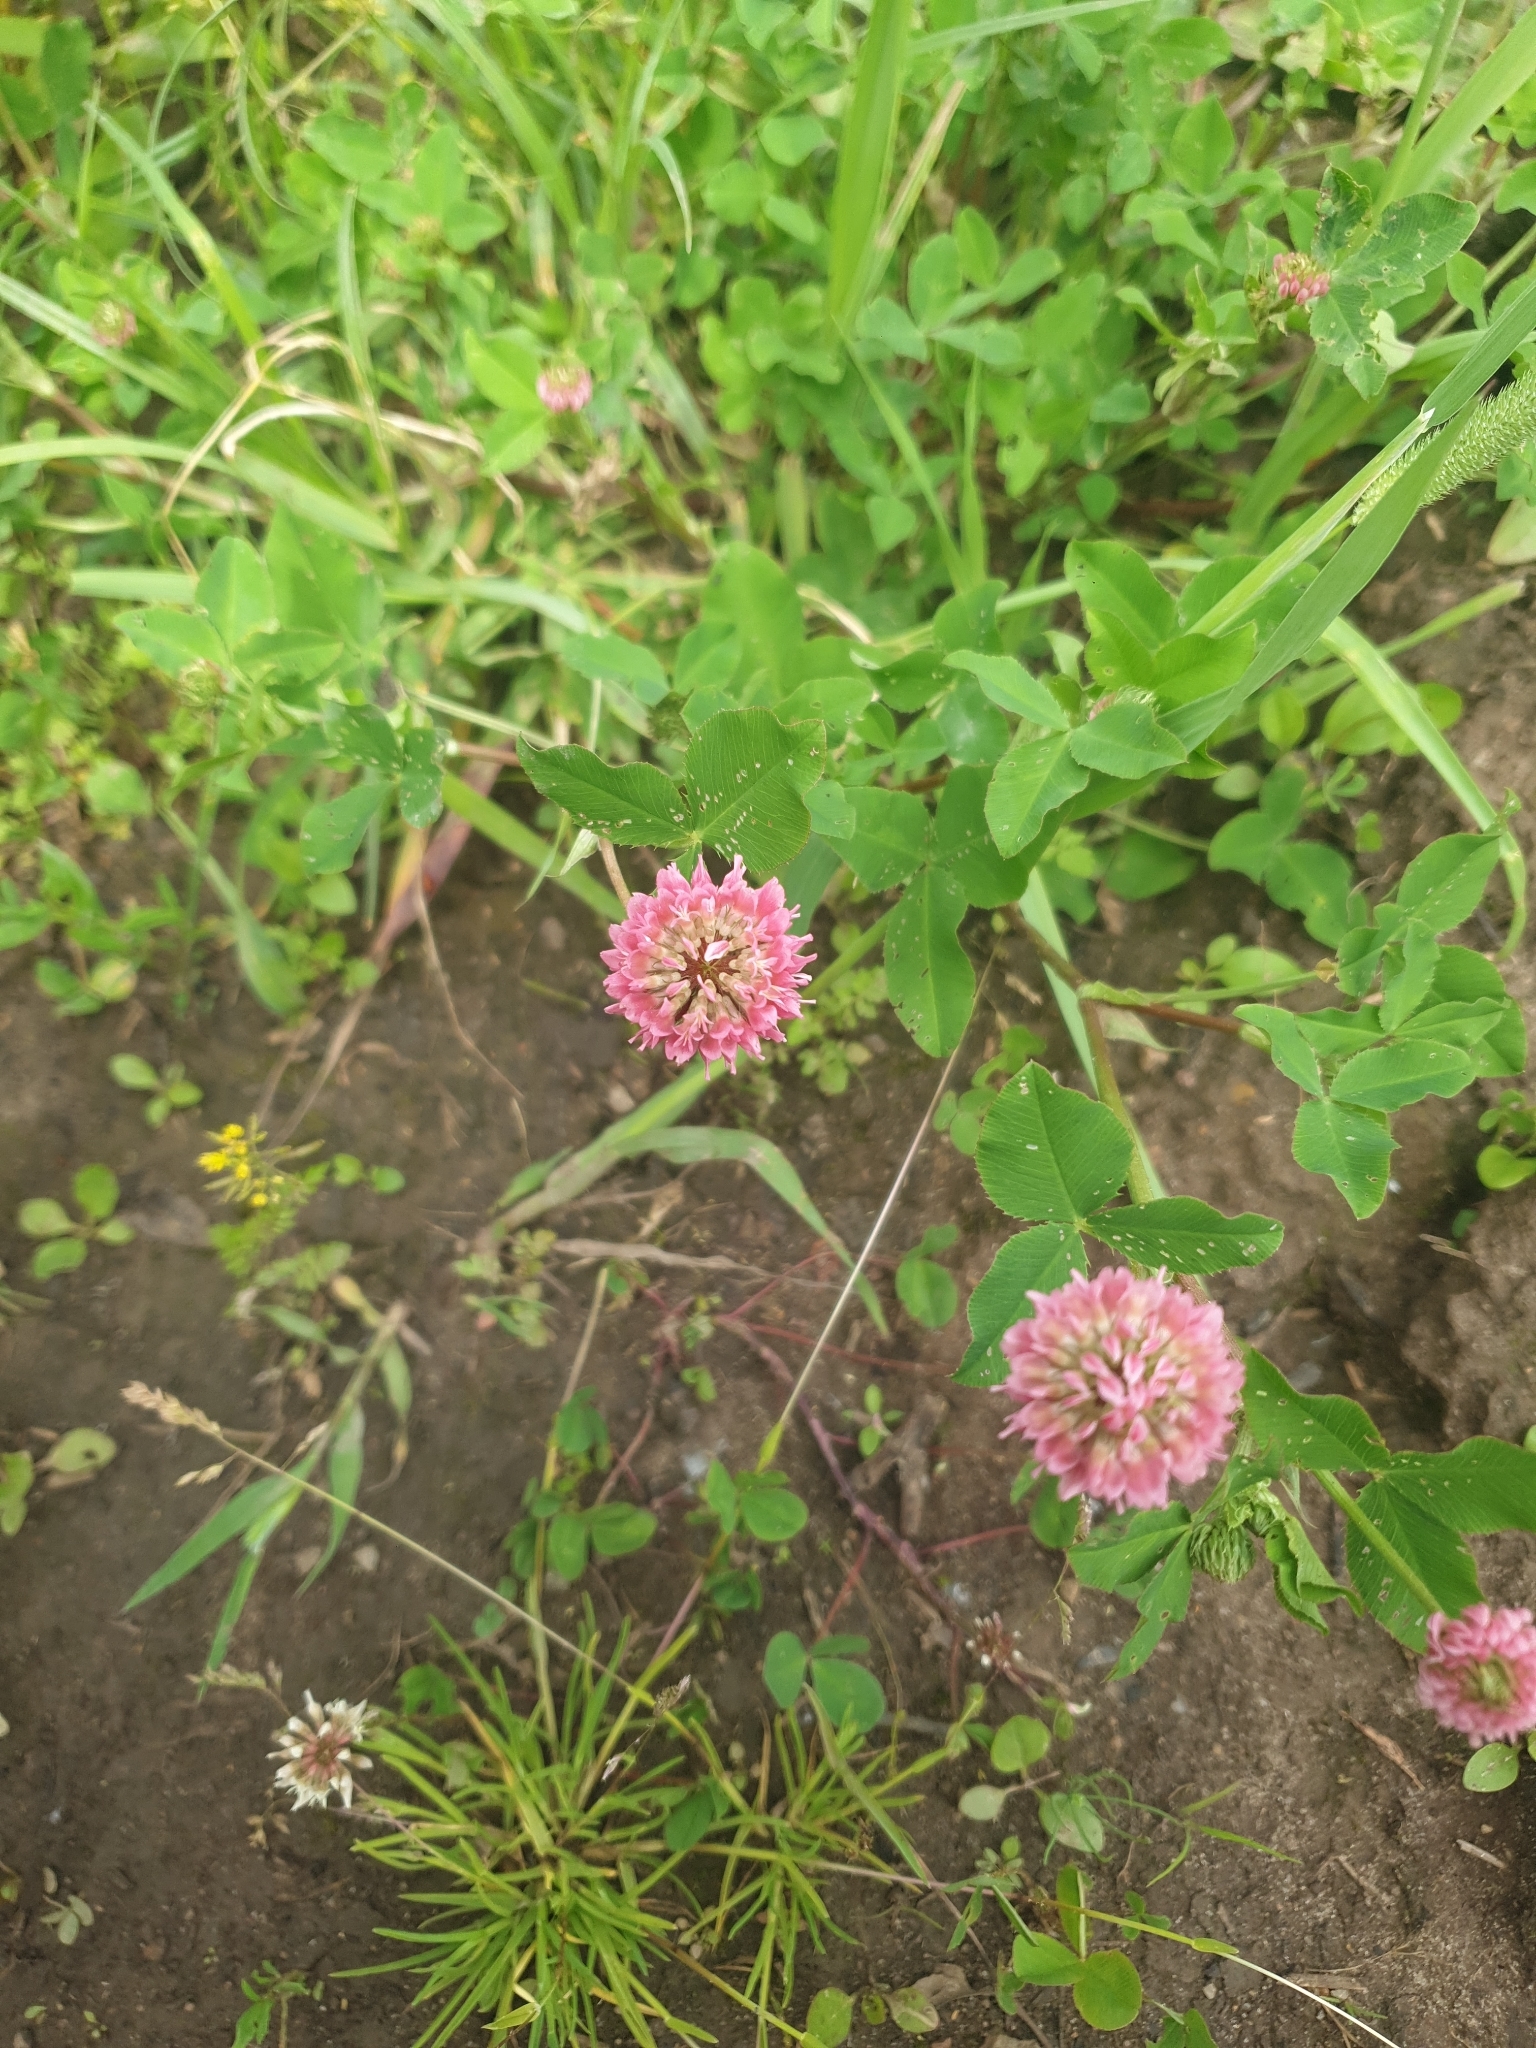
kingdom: Plantae
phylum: Tracheophyta
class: Magnoliopsida
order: Fabales
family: Fabaceae
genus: Trifolium
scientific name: Trifolium hybridum
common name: Alsike clover
